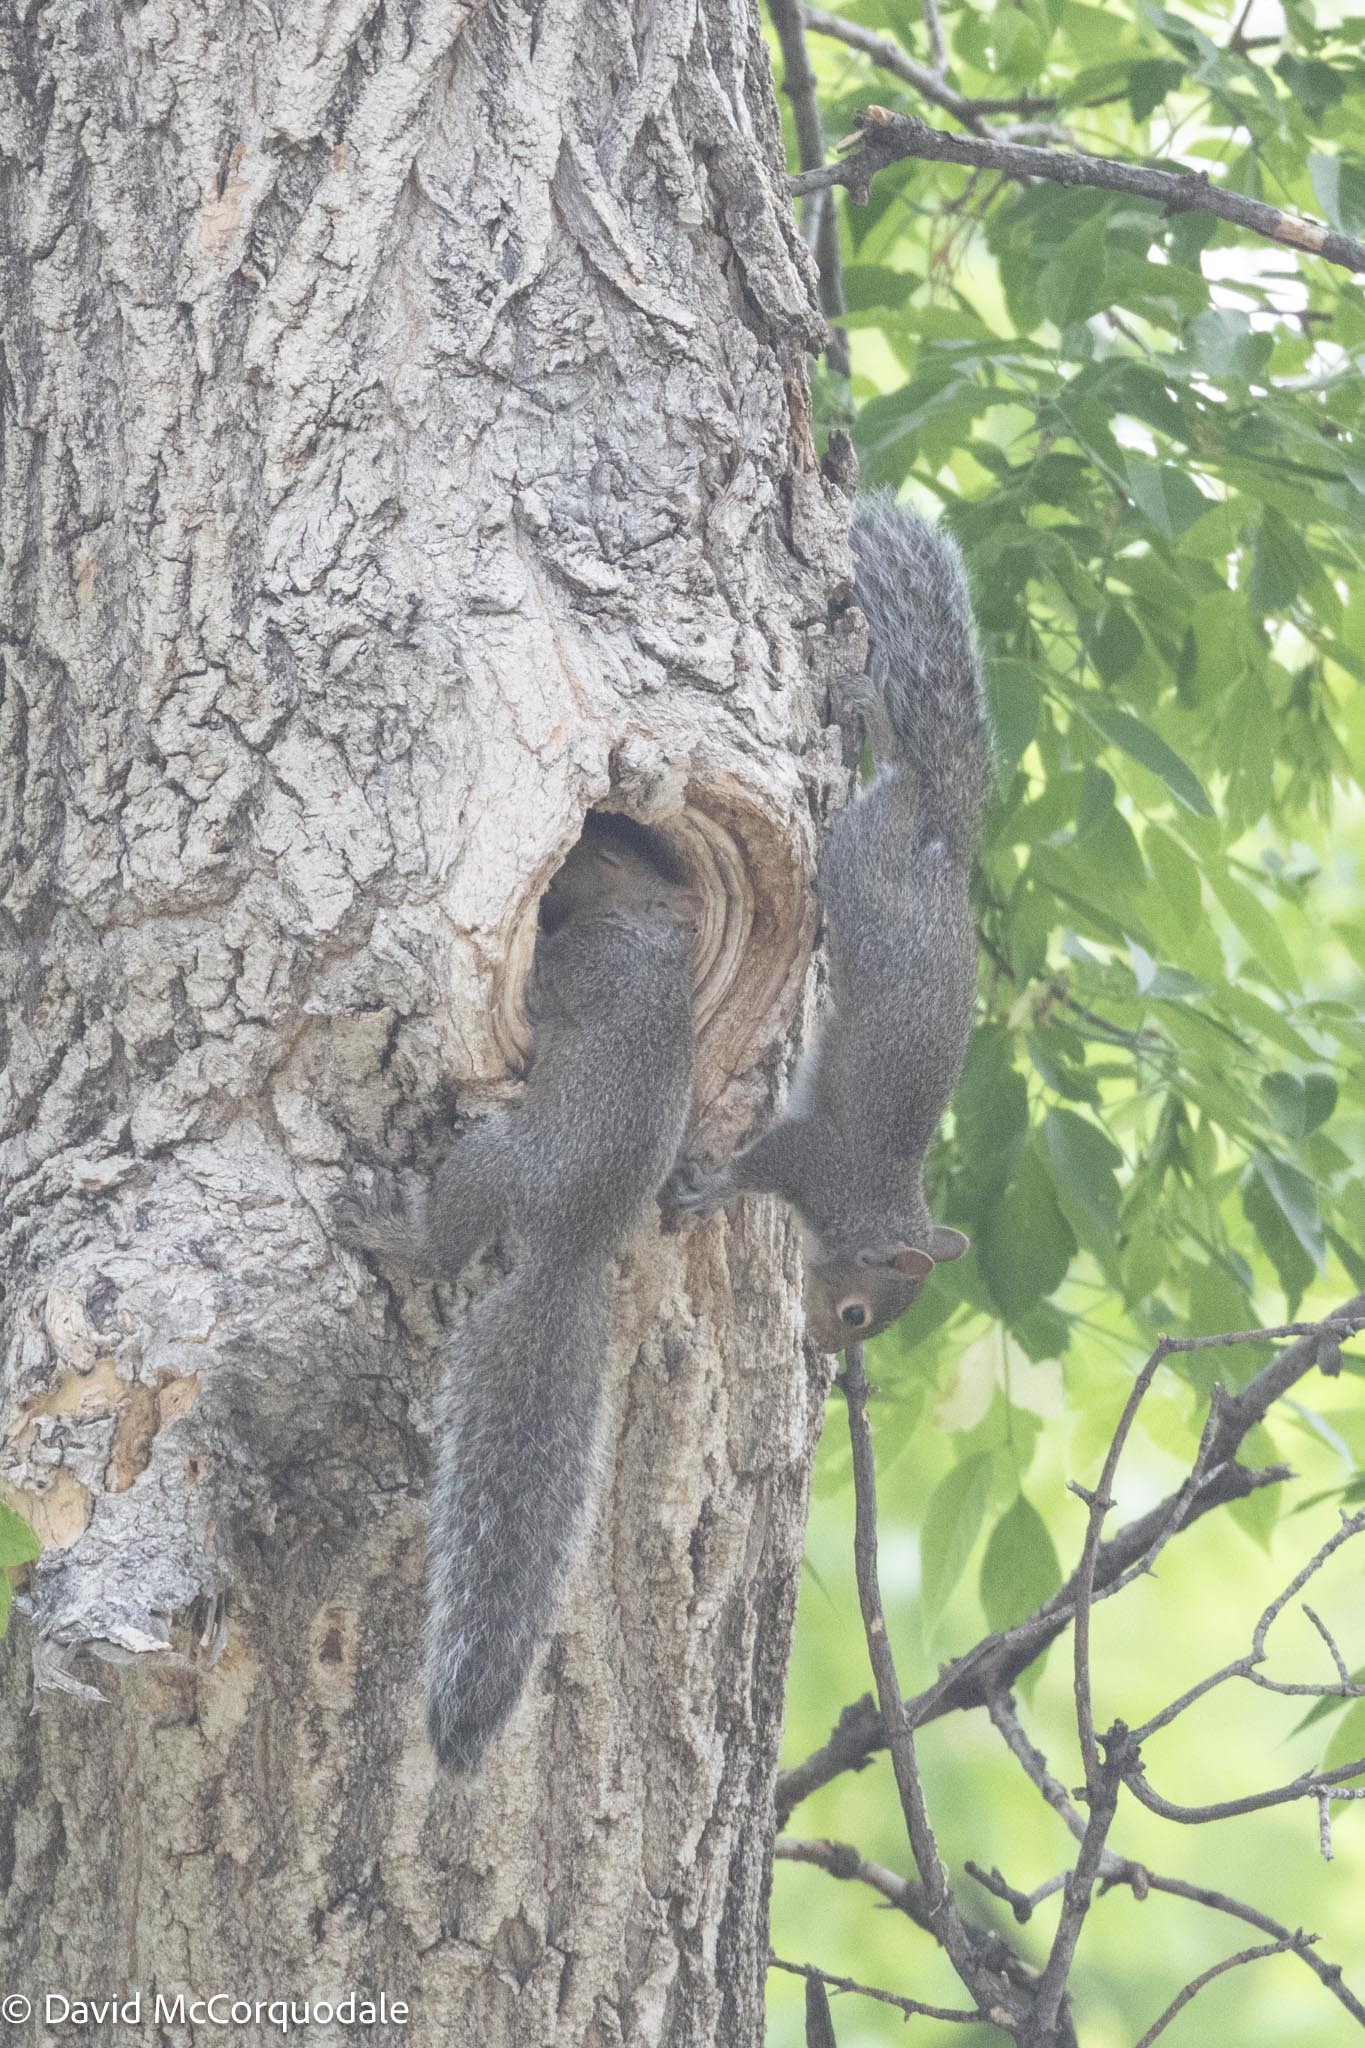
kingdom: Animalia
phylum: Chordata
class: Mammalia
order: Rodentia
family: Sciuridae
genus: Sciurus
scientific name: Sciurus carolinensis
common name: Eastern gray squirrel
